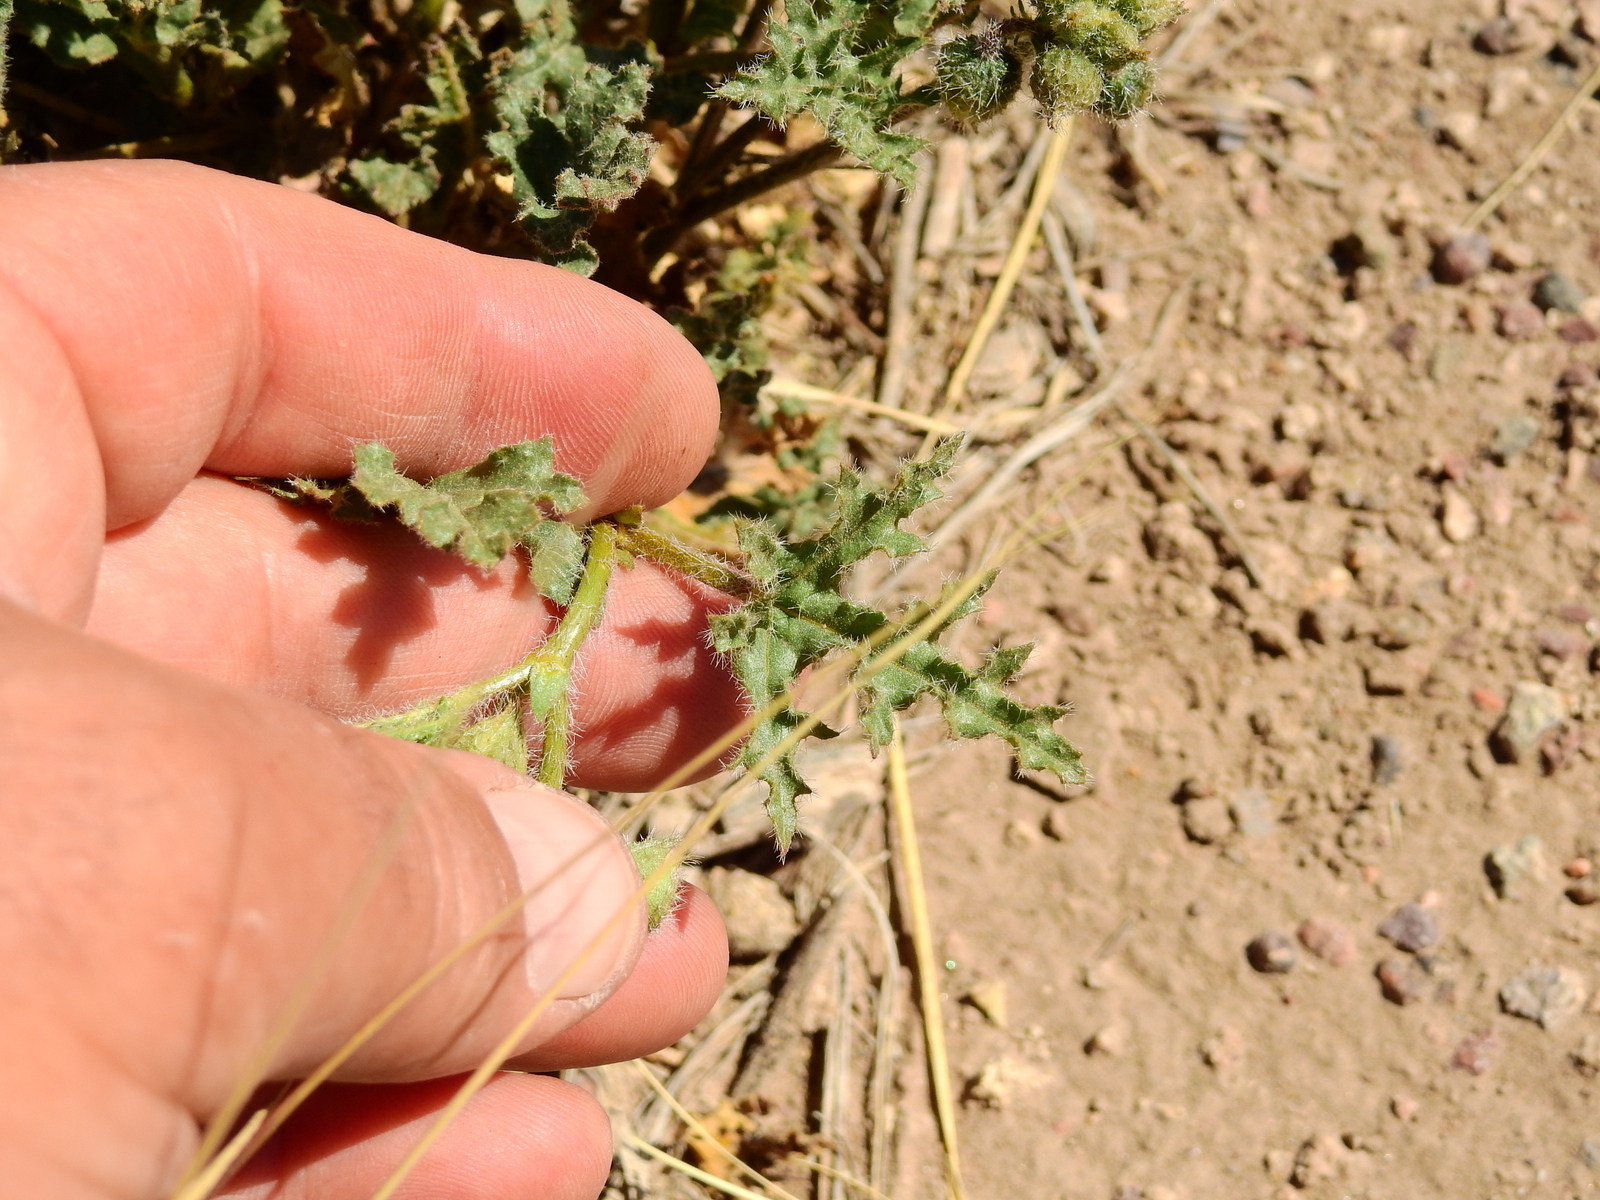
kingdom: Plantae
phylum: Tracheophyta
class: Magnoliopsida
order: Malvales
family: Malvaceae
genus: Lecanophora
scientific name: Lecanophora heterophylla
